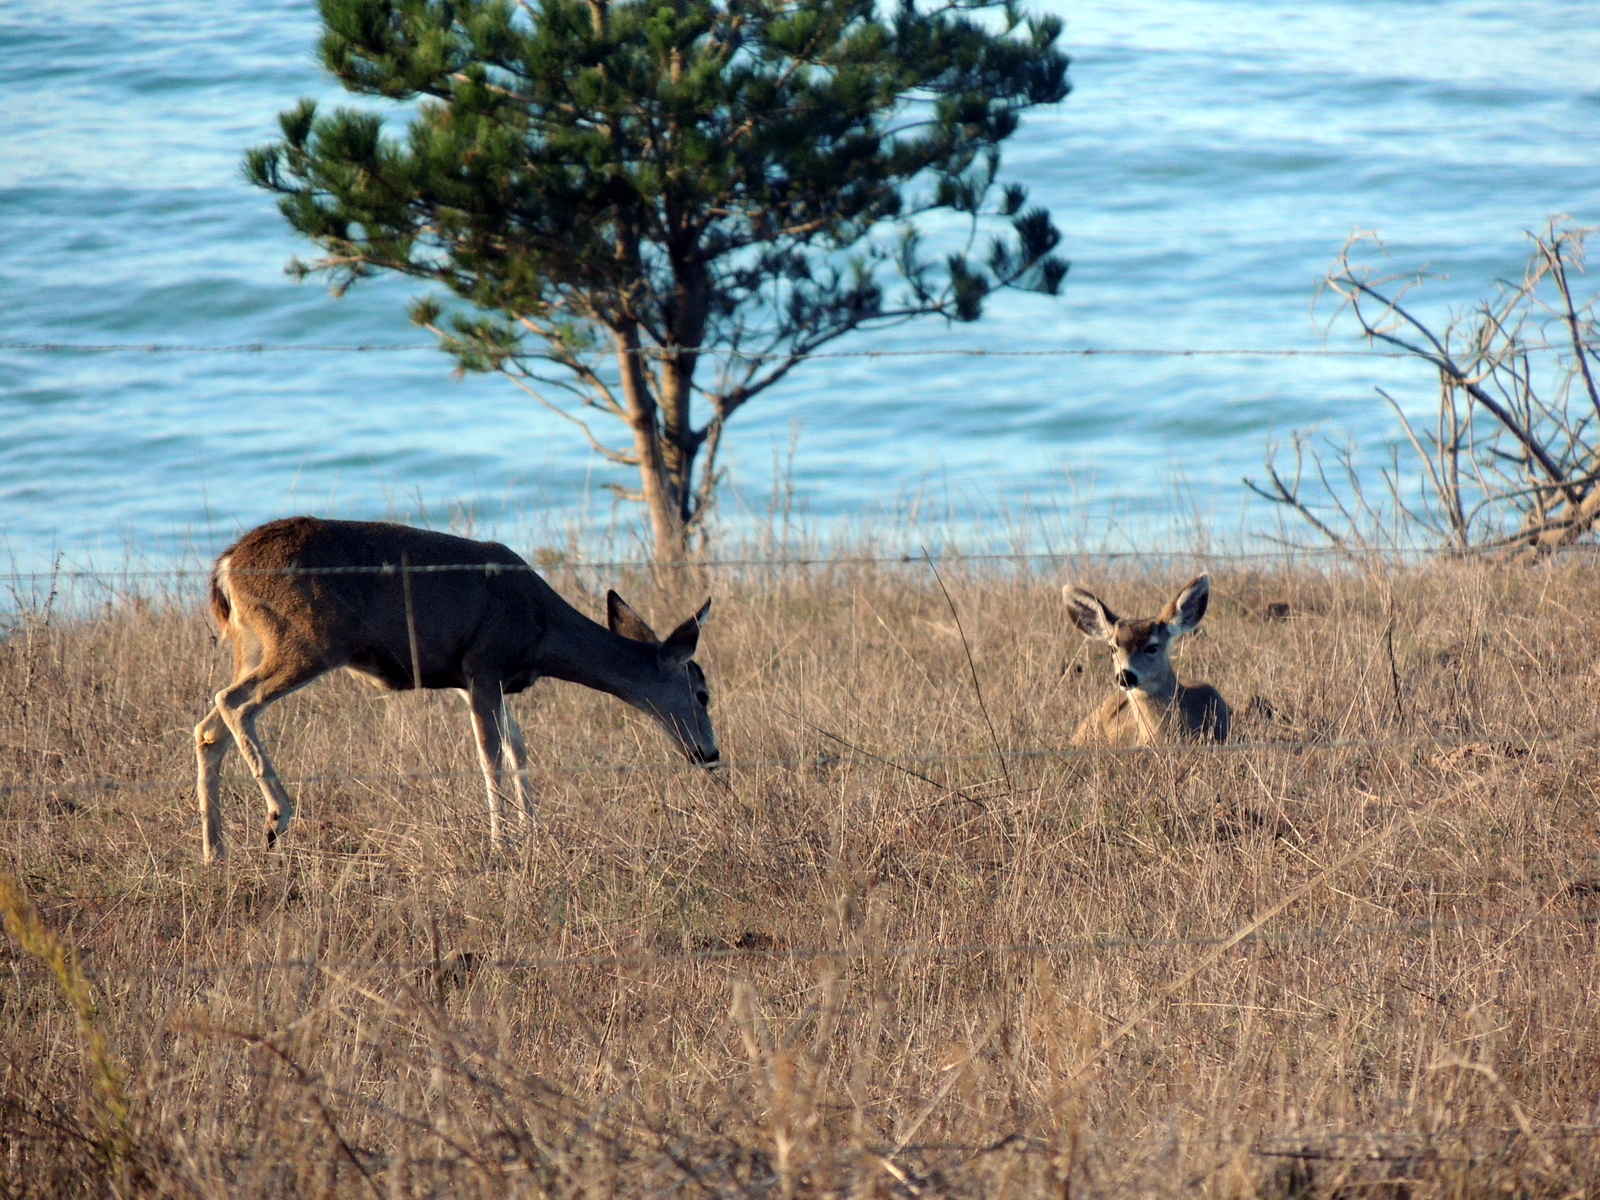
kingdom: Animalia
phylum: Chordata
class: Mammalia
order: Artiodactyla
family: Cervidae
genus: Odocoileus
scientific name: Odocoileus hemionus
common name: Mule deer
